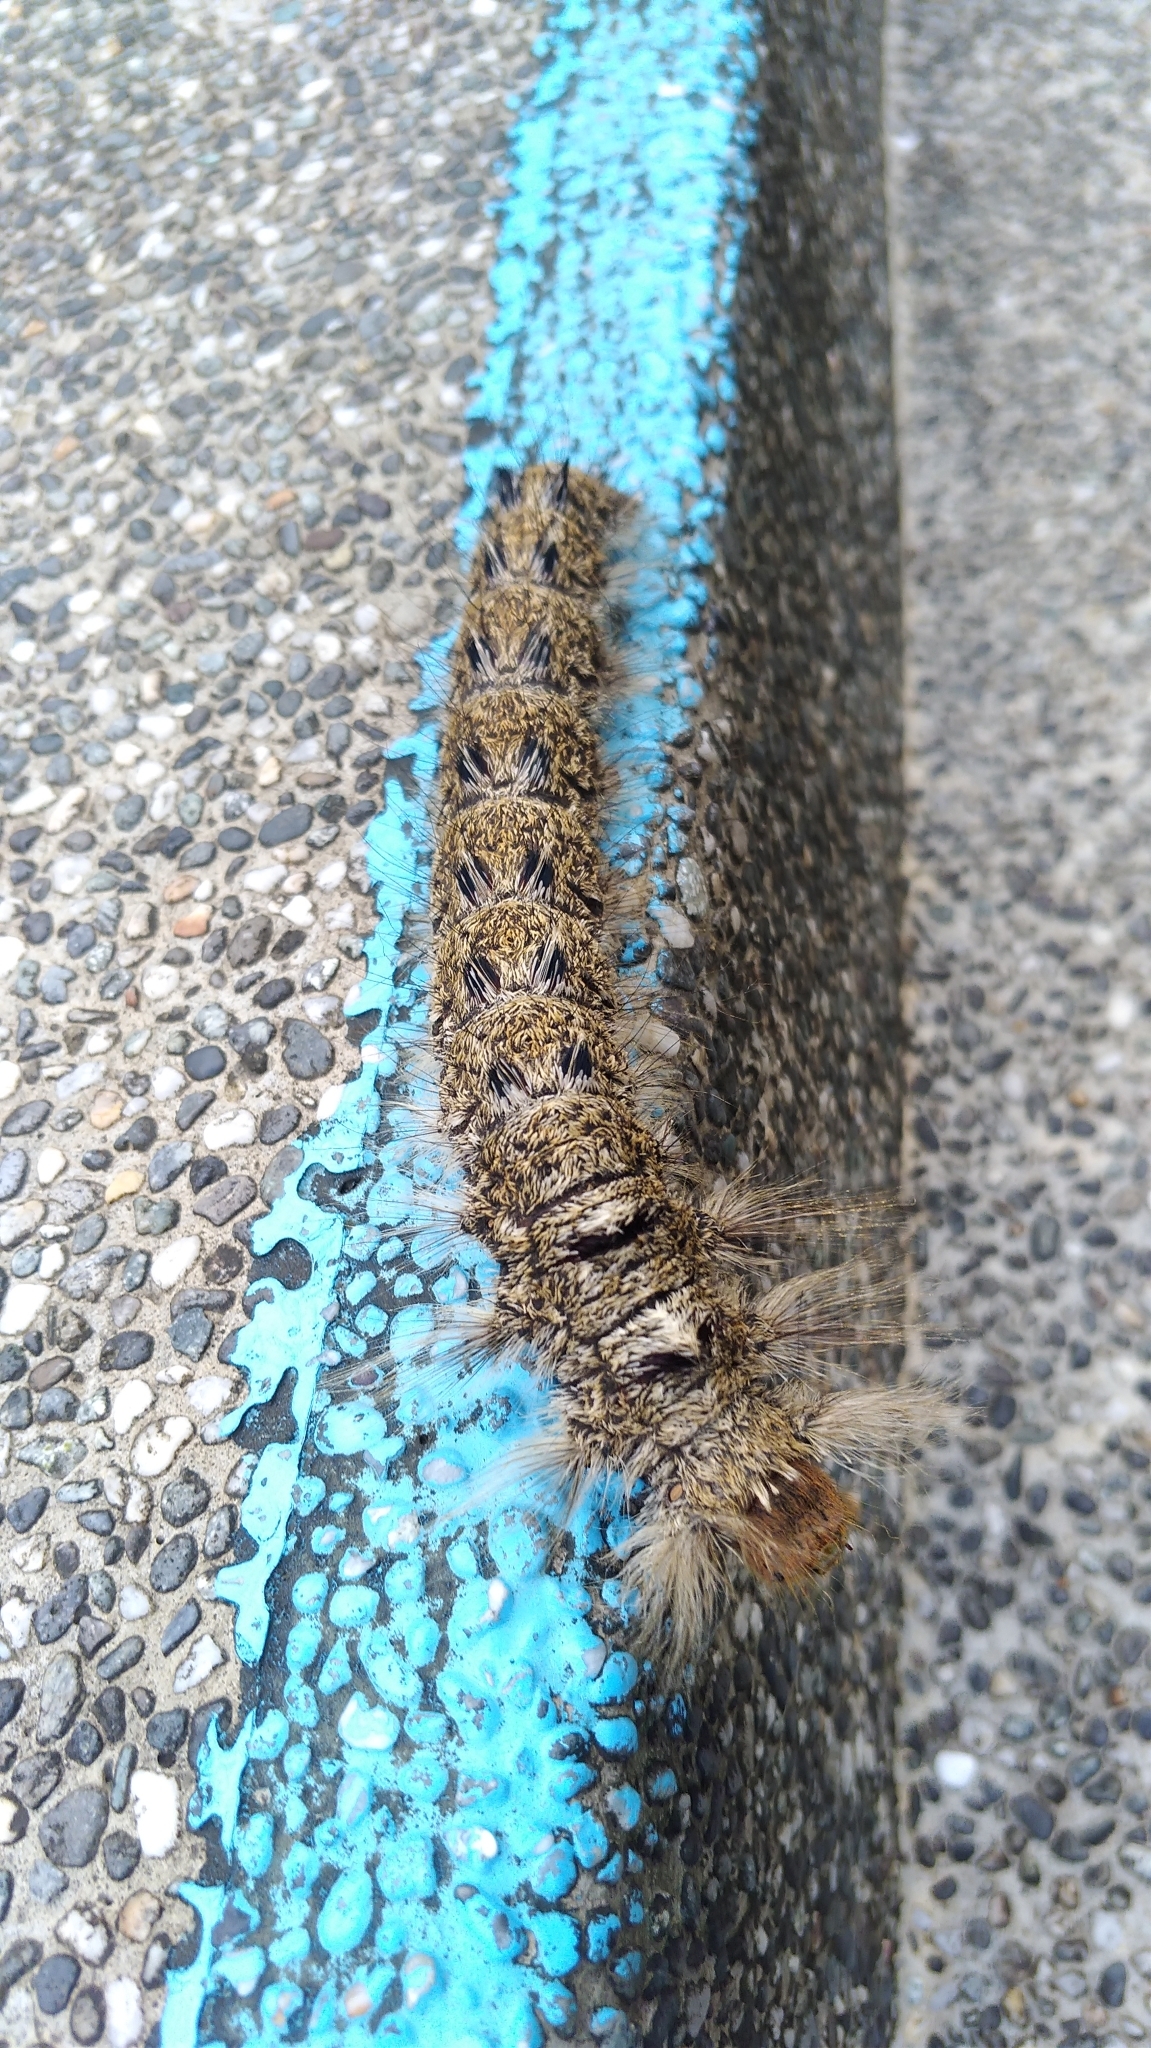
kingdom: Animalia
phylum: Arthropoda
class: Insecta
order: Lepidoptera
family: Lasiocampidae
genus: Lebeda
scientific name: Lebeda nobilis
